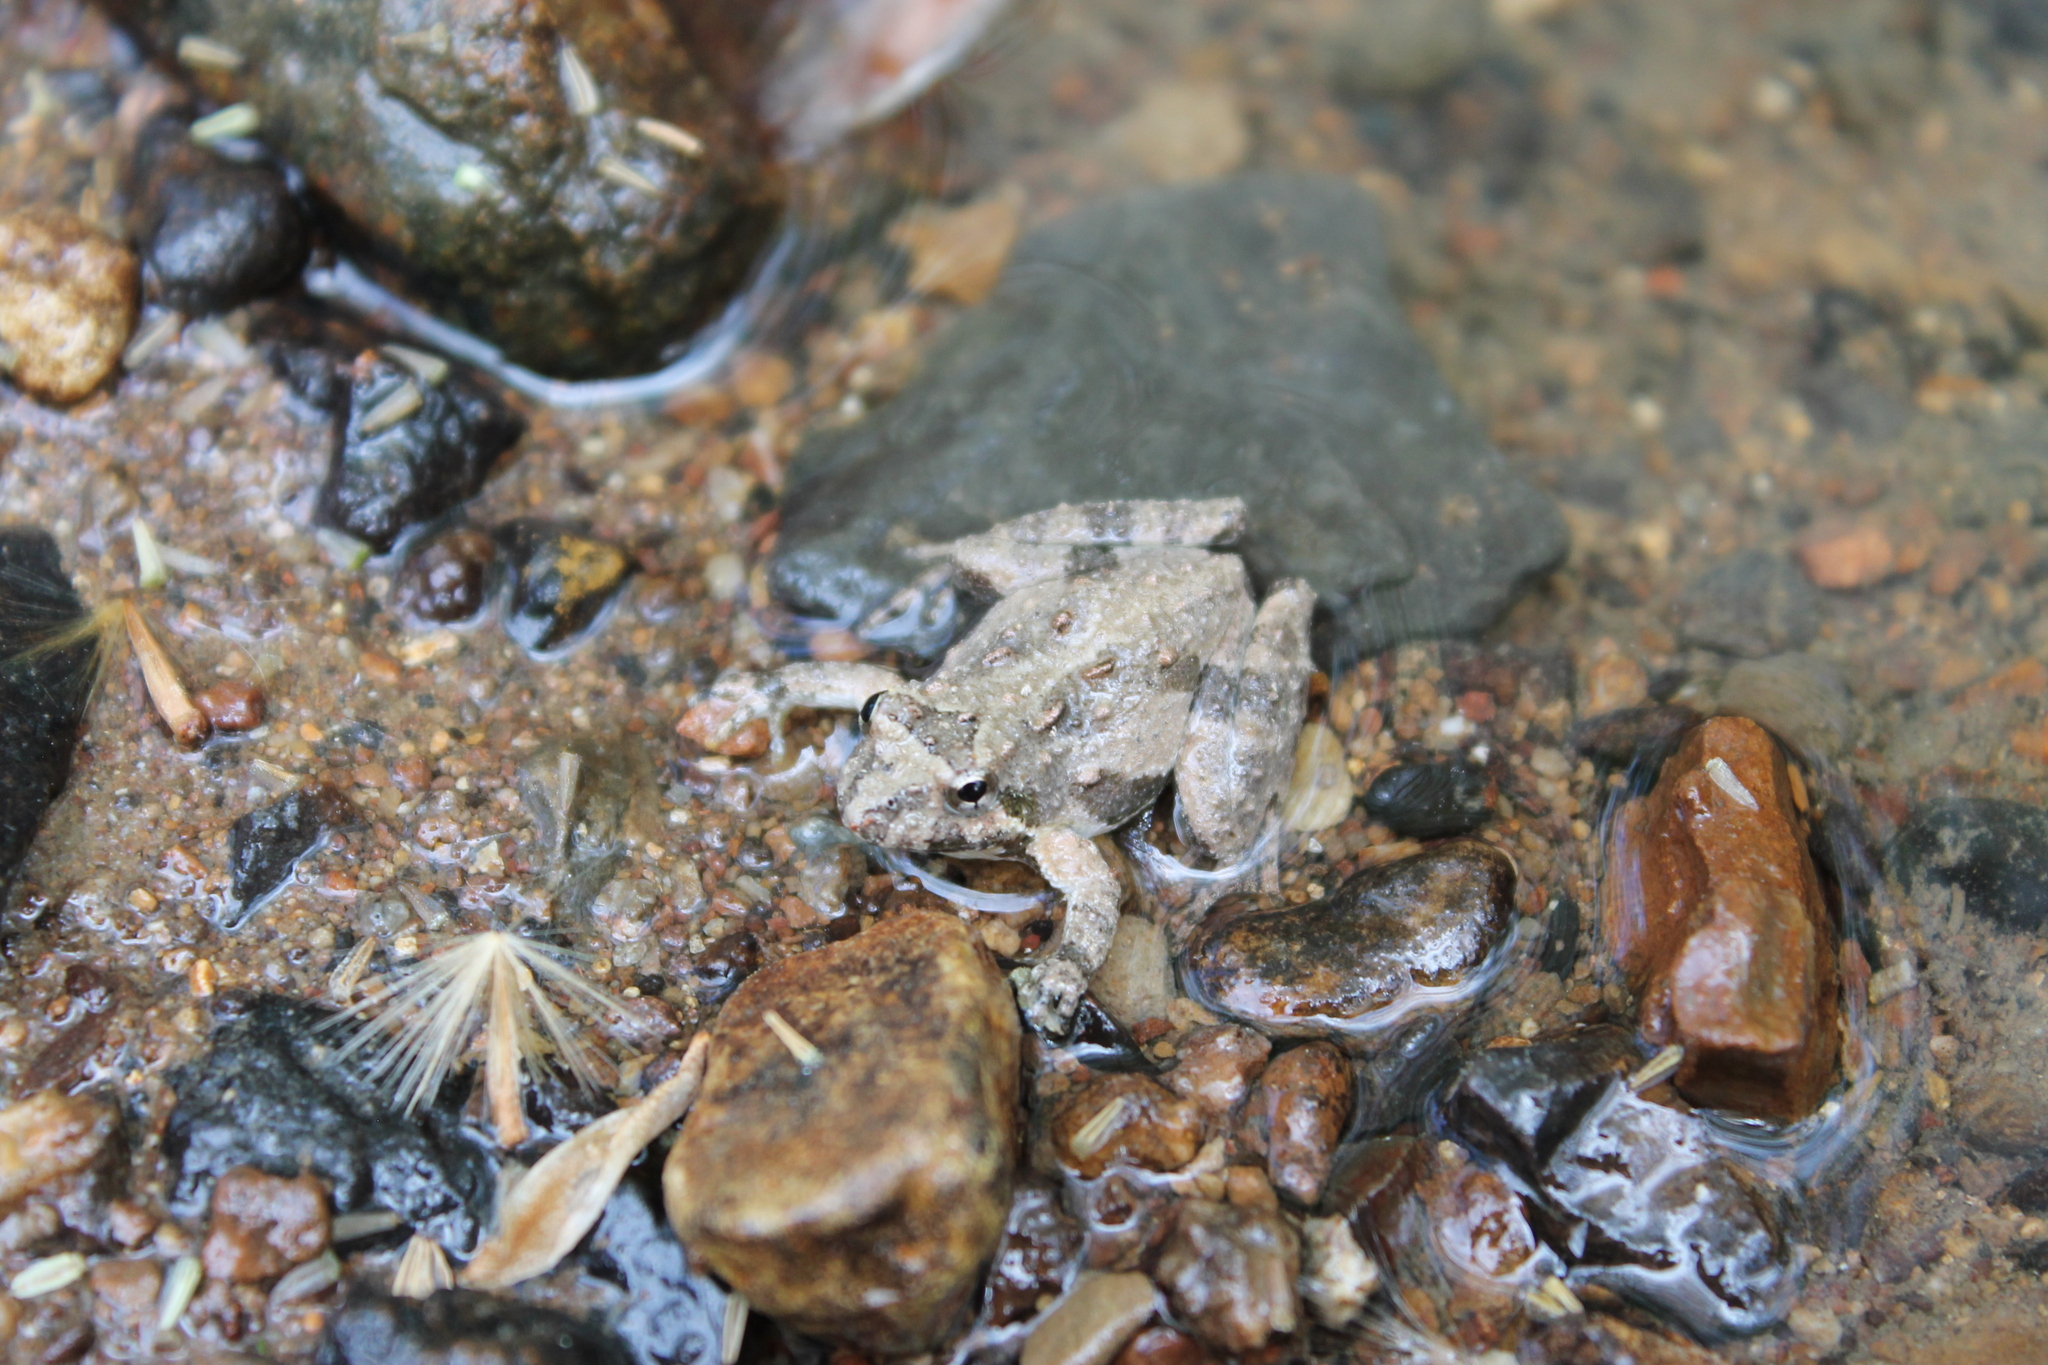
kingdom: Animalia
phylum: Chordata
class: Amphibia
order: Anura
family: Hylidae
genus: Acris
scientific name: Acris crepitans
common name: Northern cricket frog
